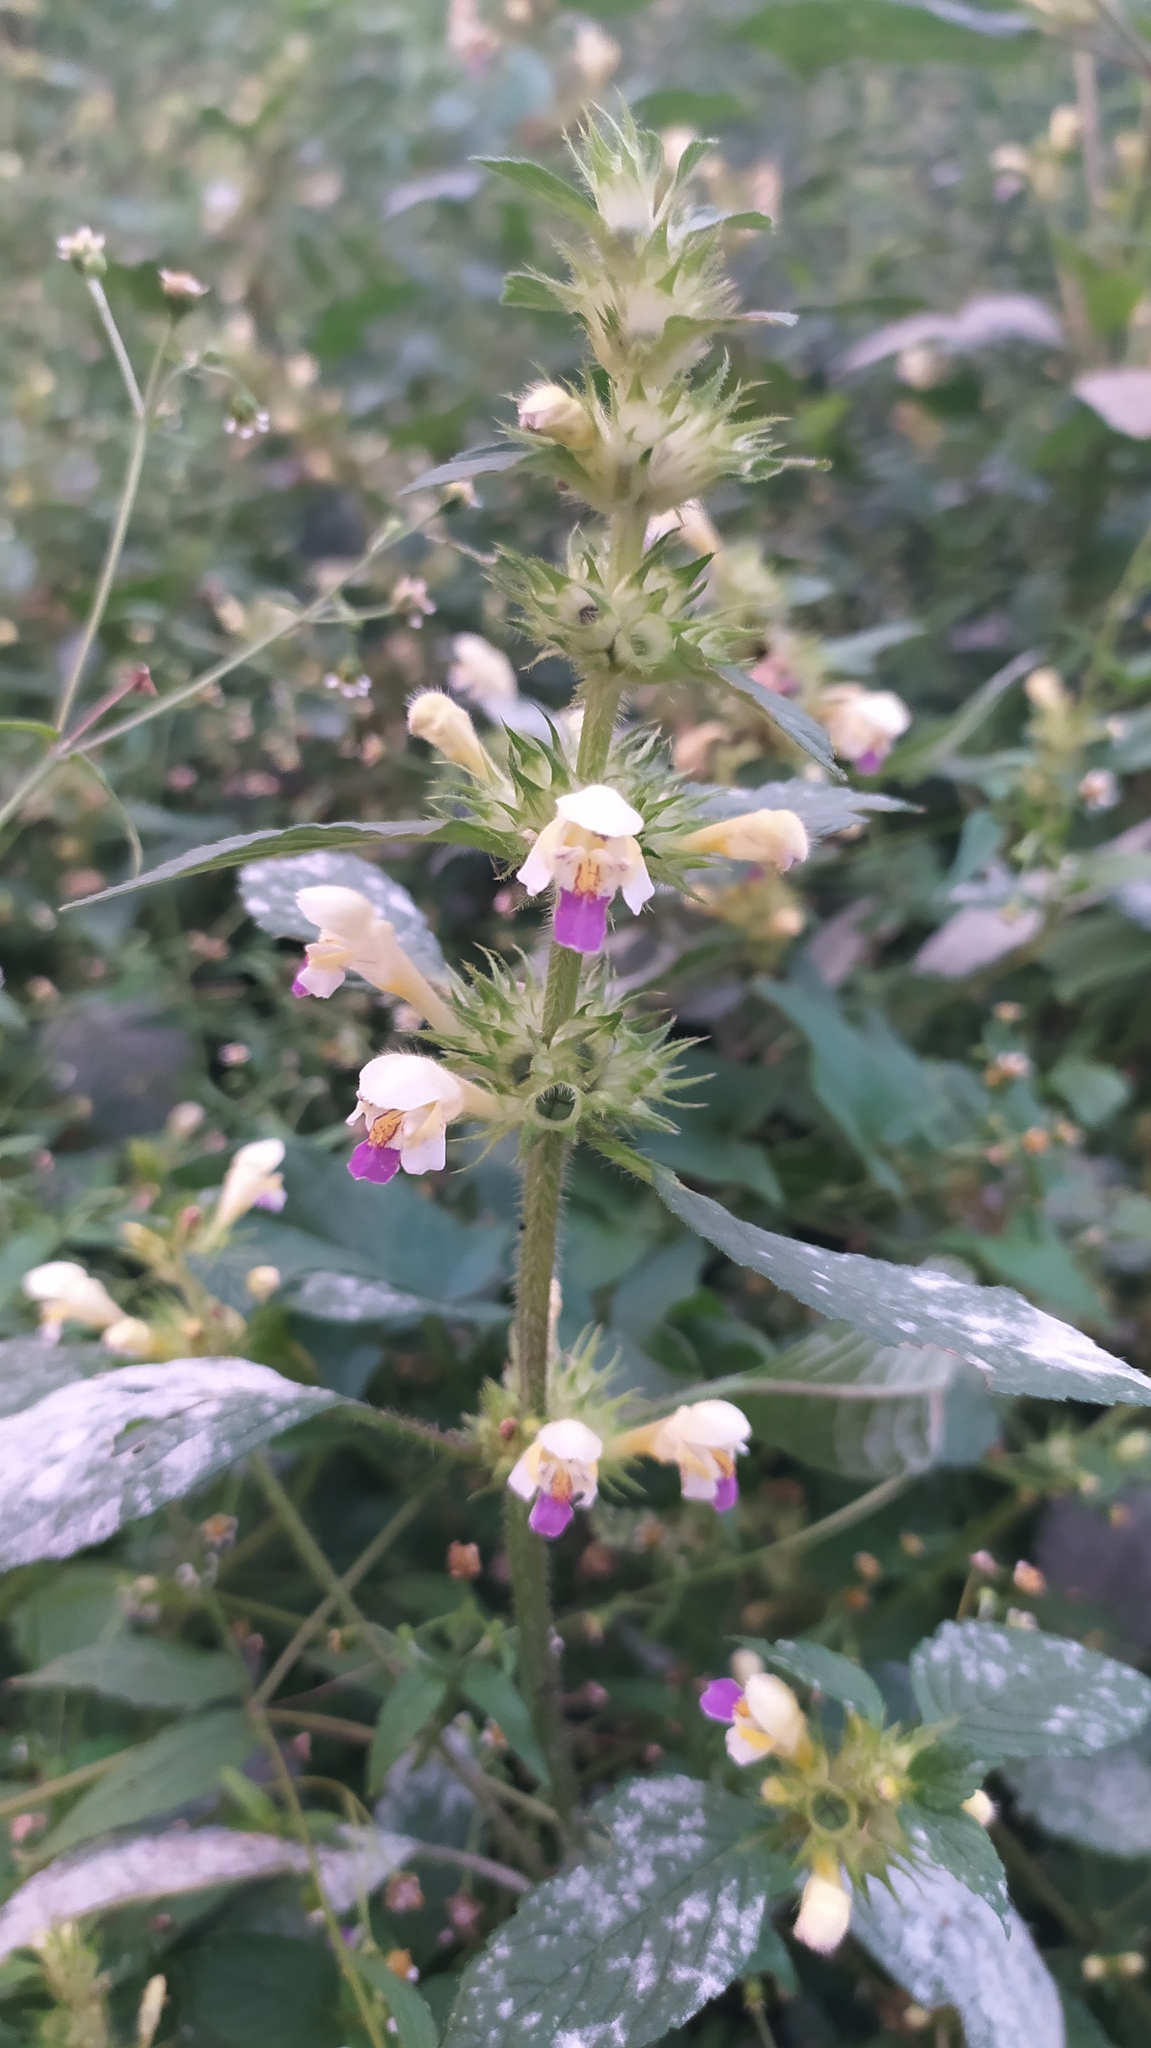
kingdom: Plantae
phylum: Tracheophyta
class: Magnoliopsida
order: Lamiales
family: Lamiaceae
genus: Galeopsis
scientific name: Galeopsis speciosa
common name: Large-flowered hemp-nettle
